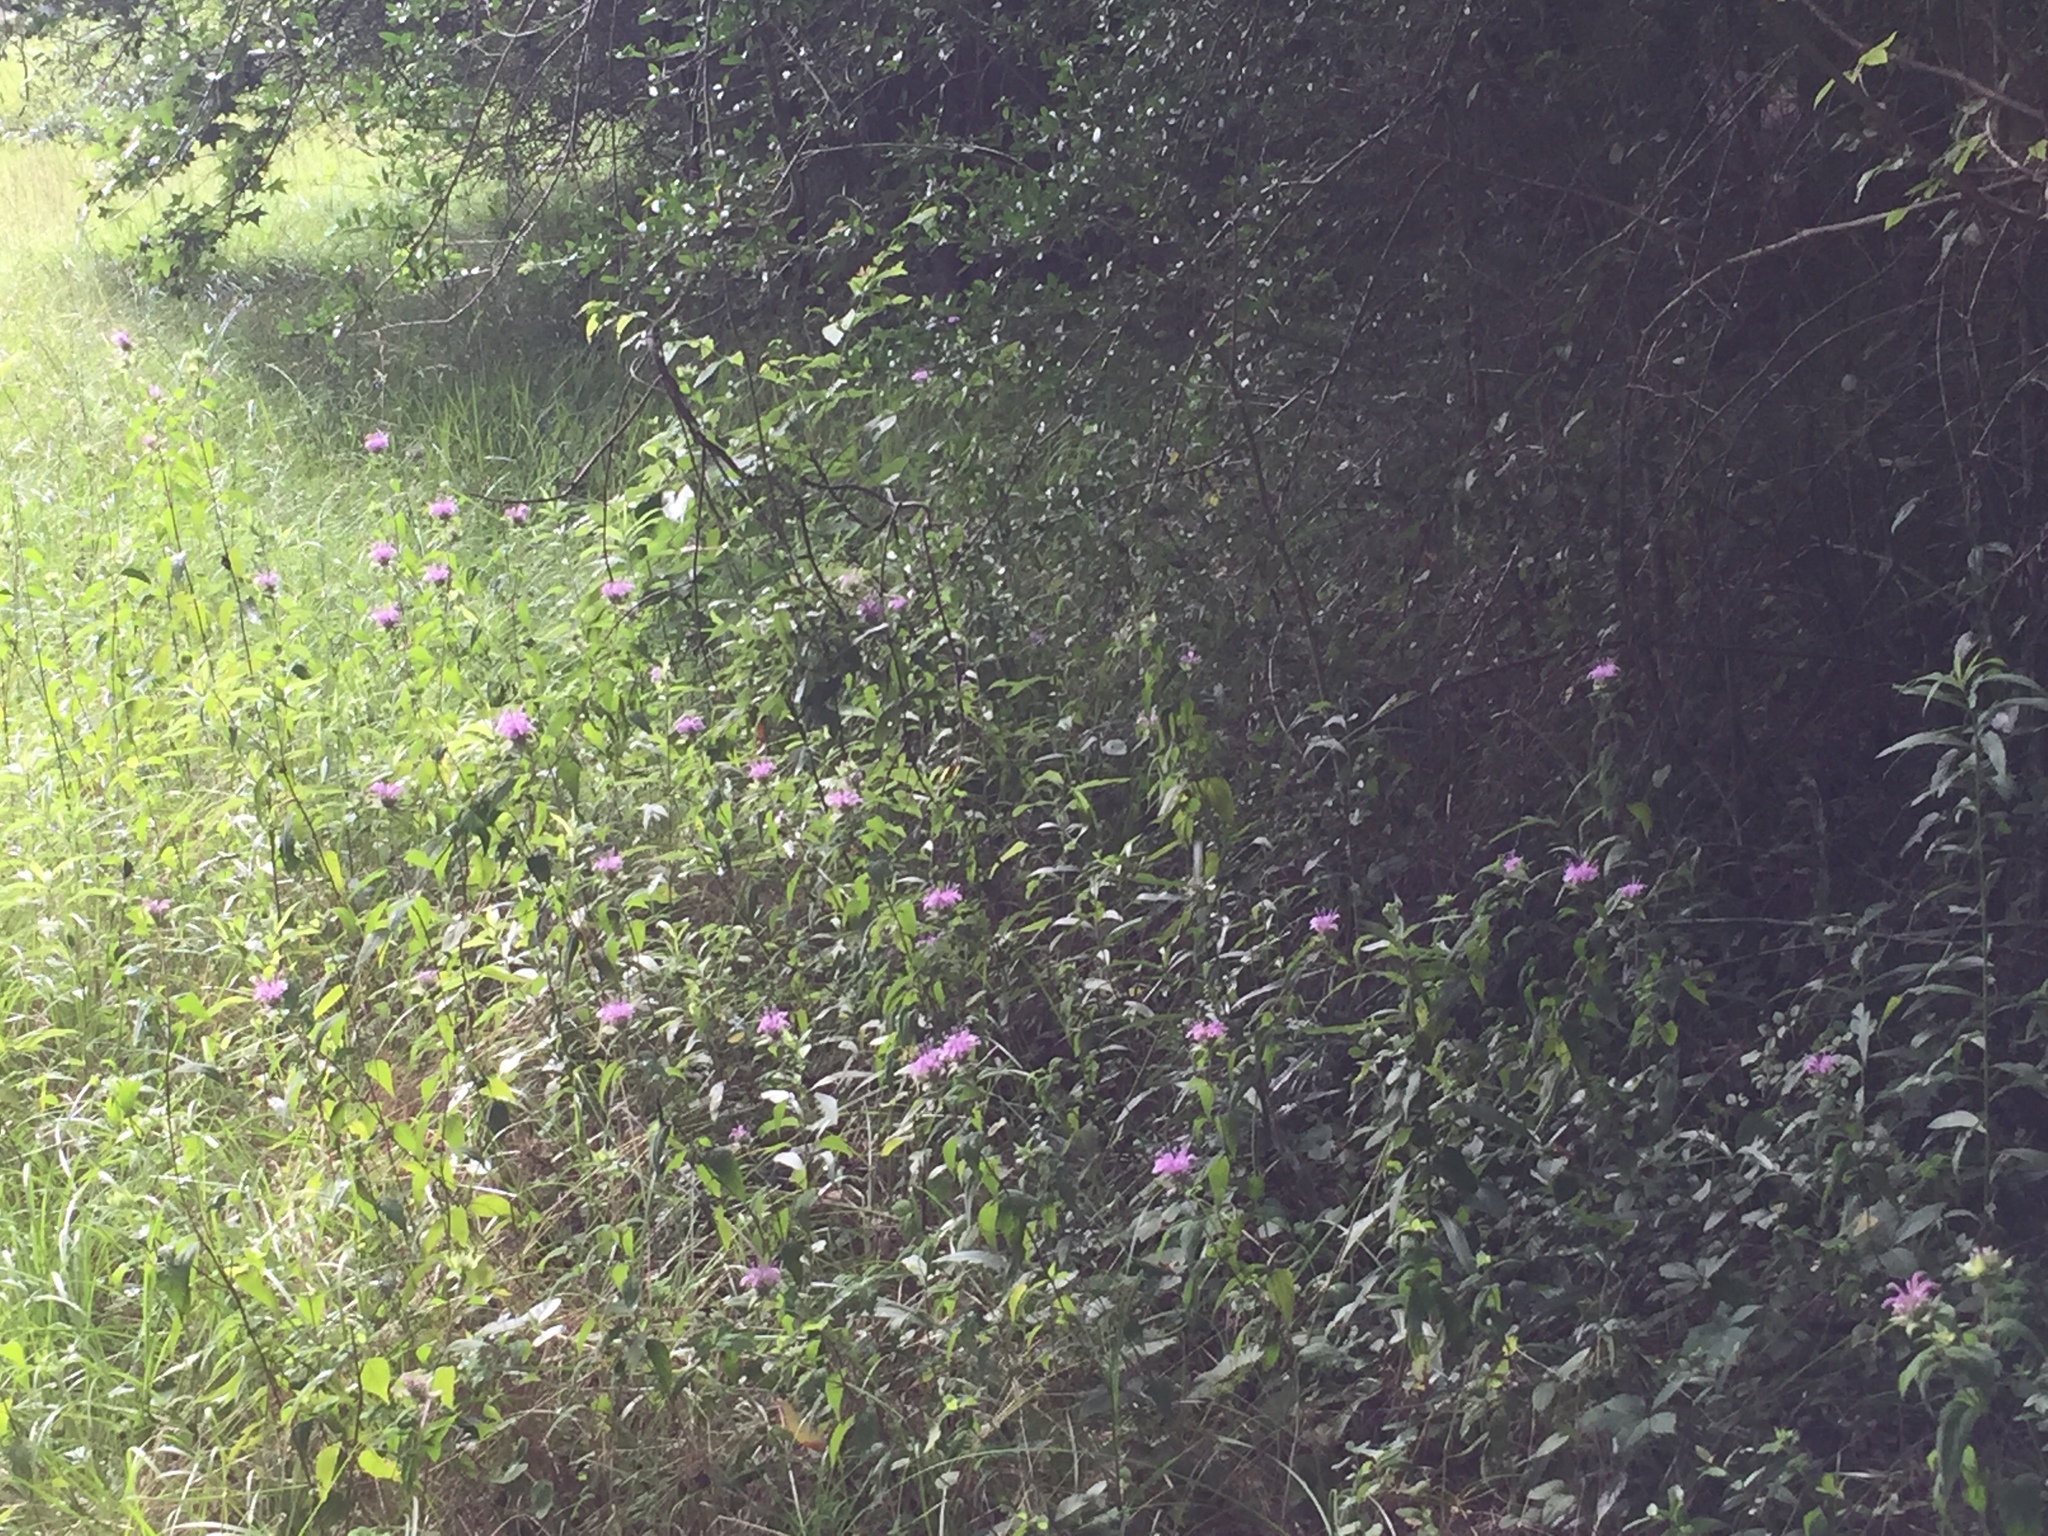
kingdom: Plantae
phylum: Tracheophyta
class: Magnoliopsida
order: Lamiales
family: Lamiaceae
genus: Monarda
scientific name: Monarda fistulosa
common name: Purple beebalm
